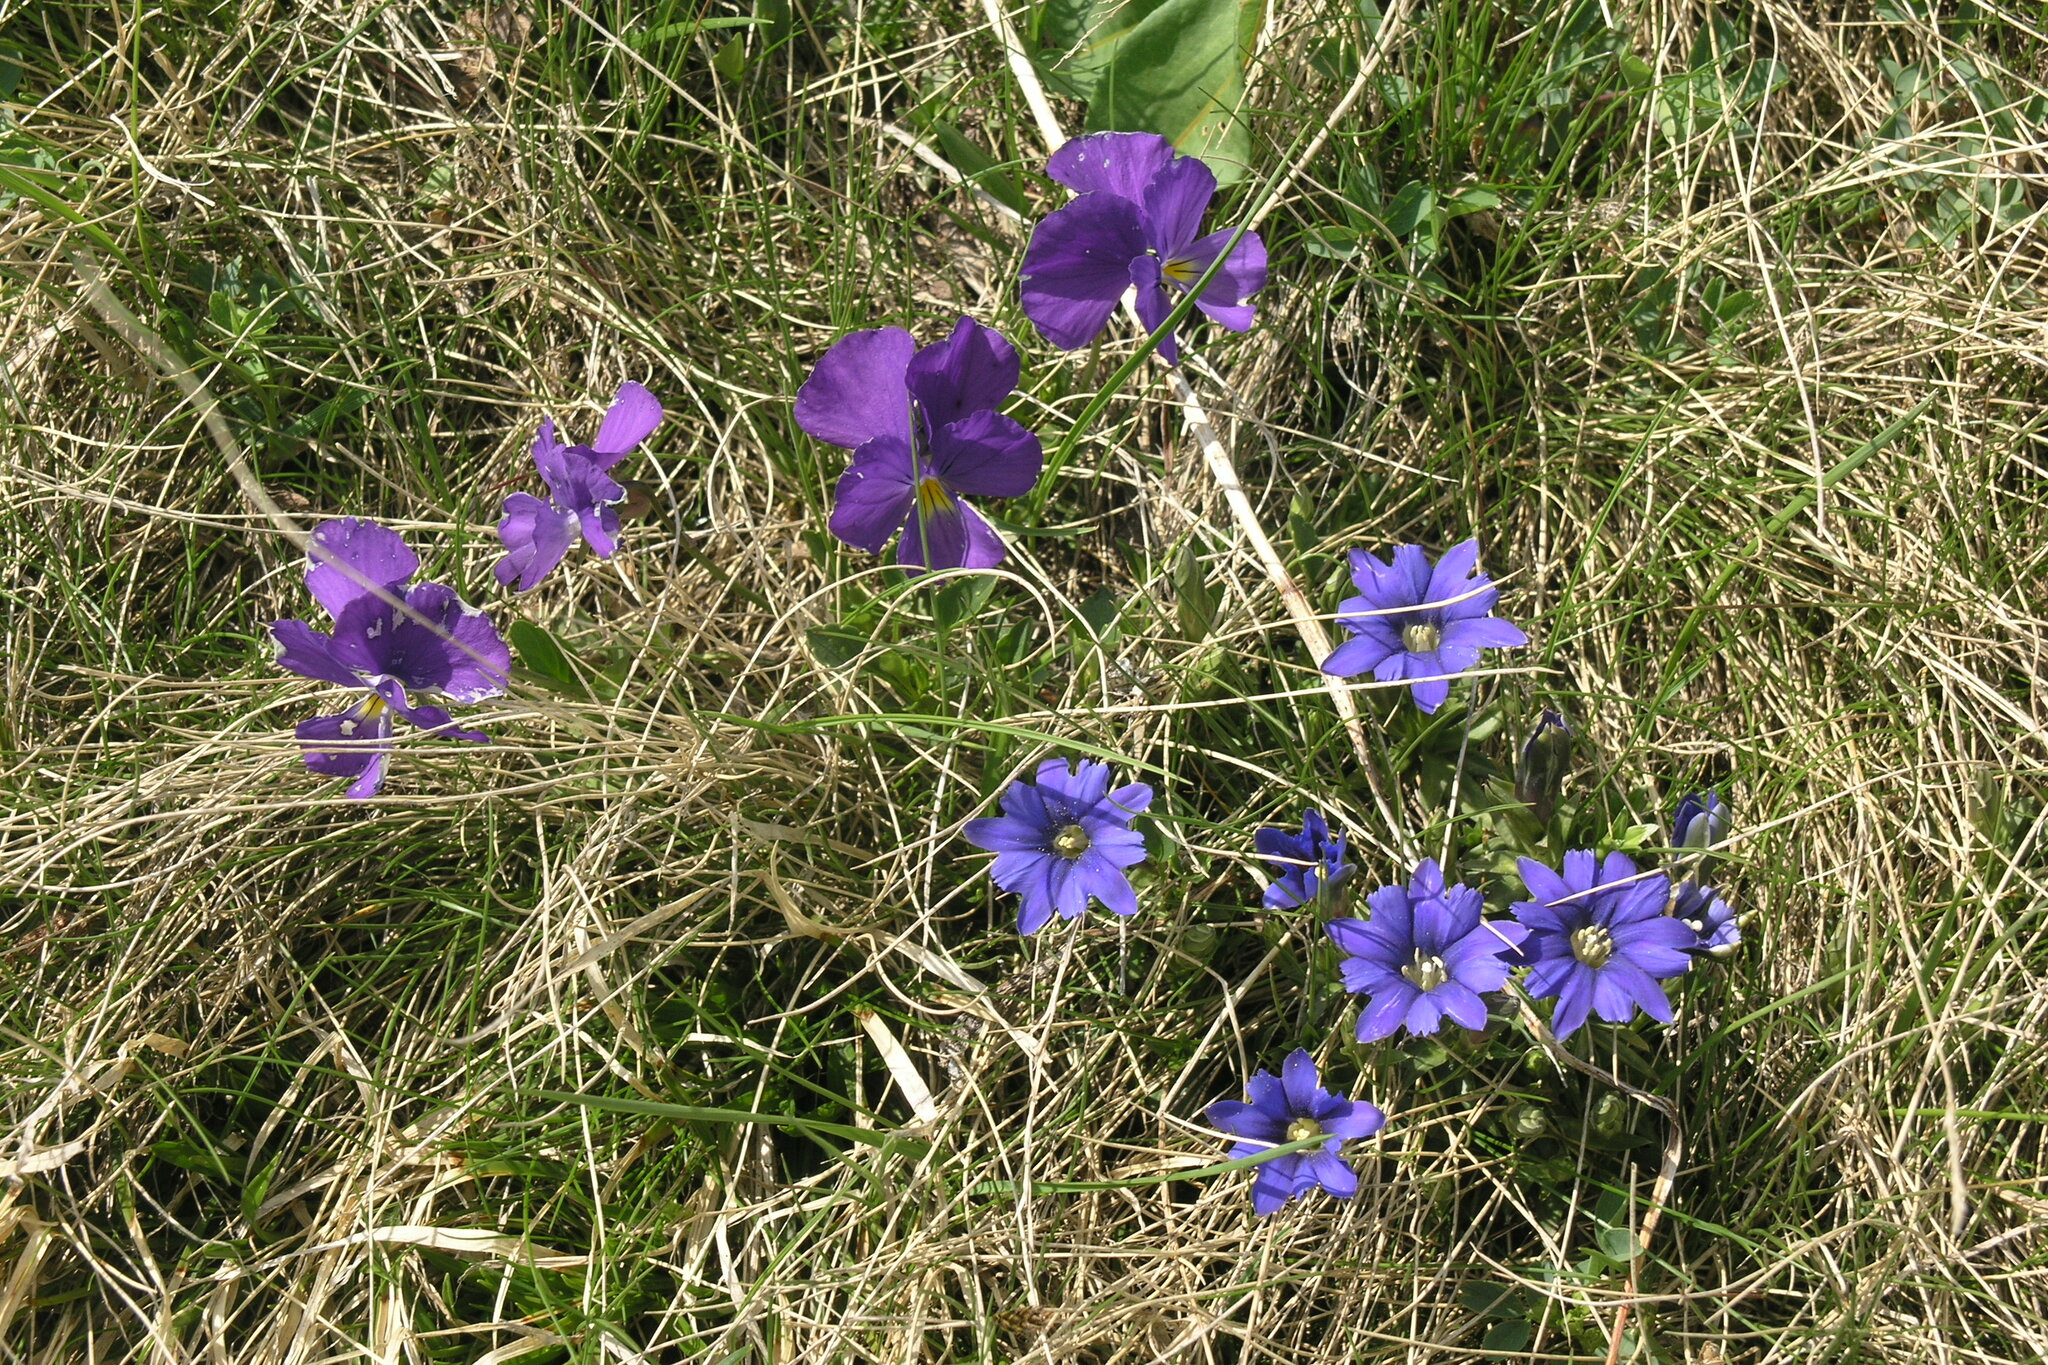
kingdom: Plantae
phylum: Tracheophyta
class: Magnoliopsida
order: Malpighiales
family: Violaceae
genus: Viola
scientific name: Viola oreades
